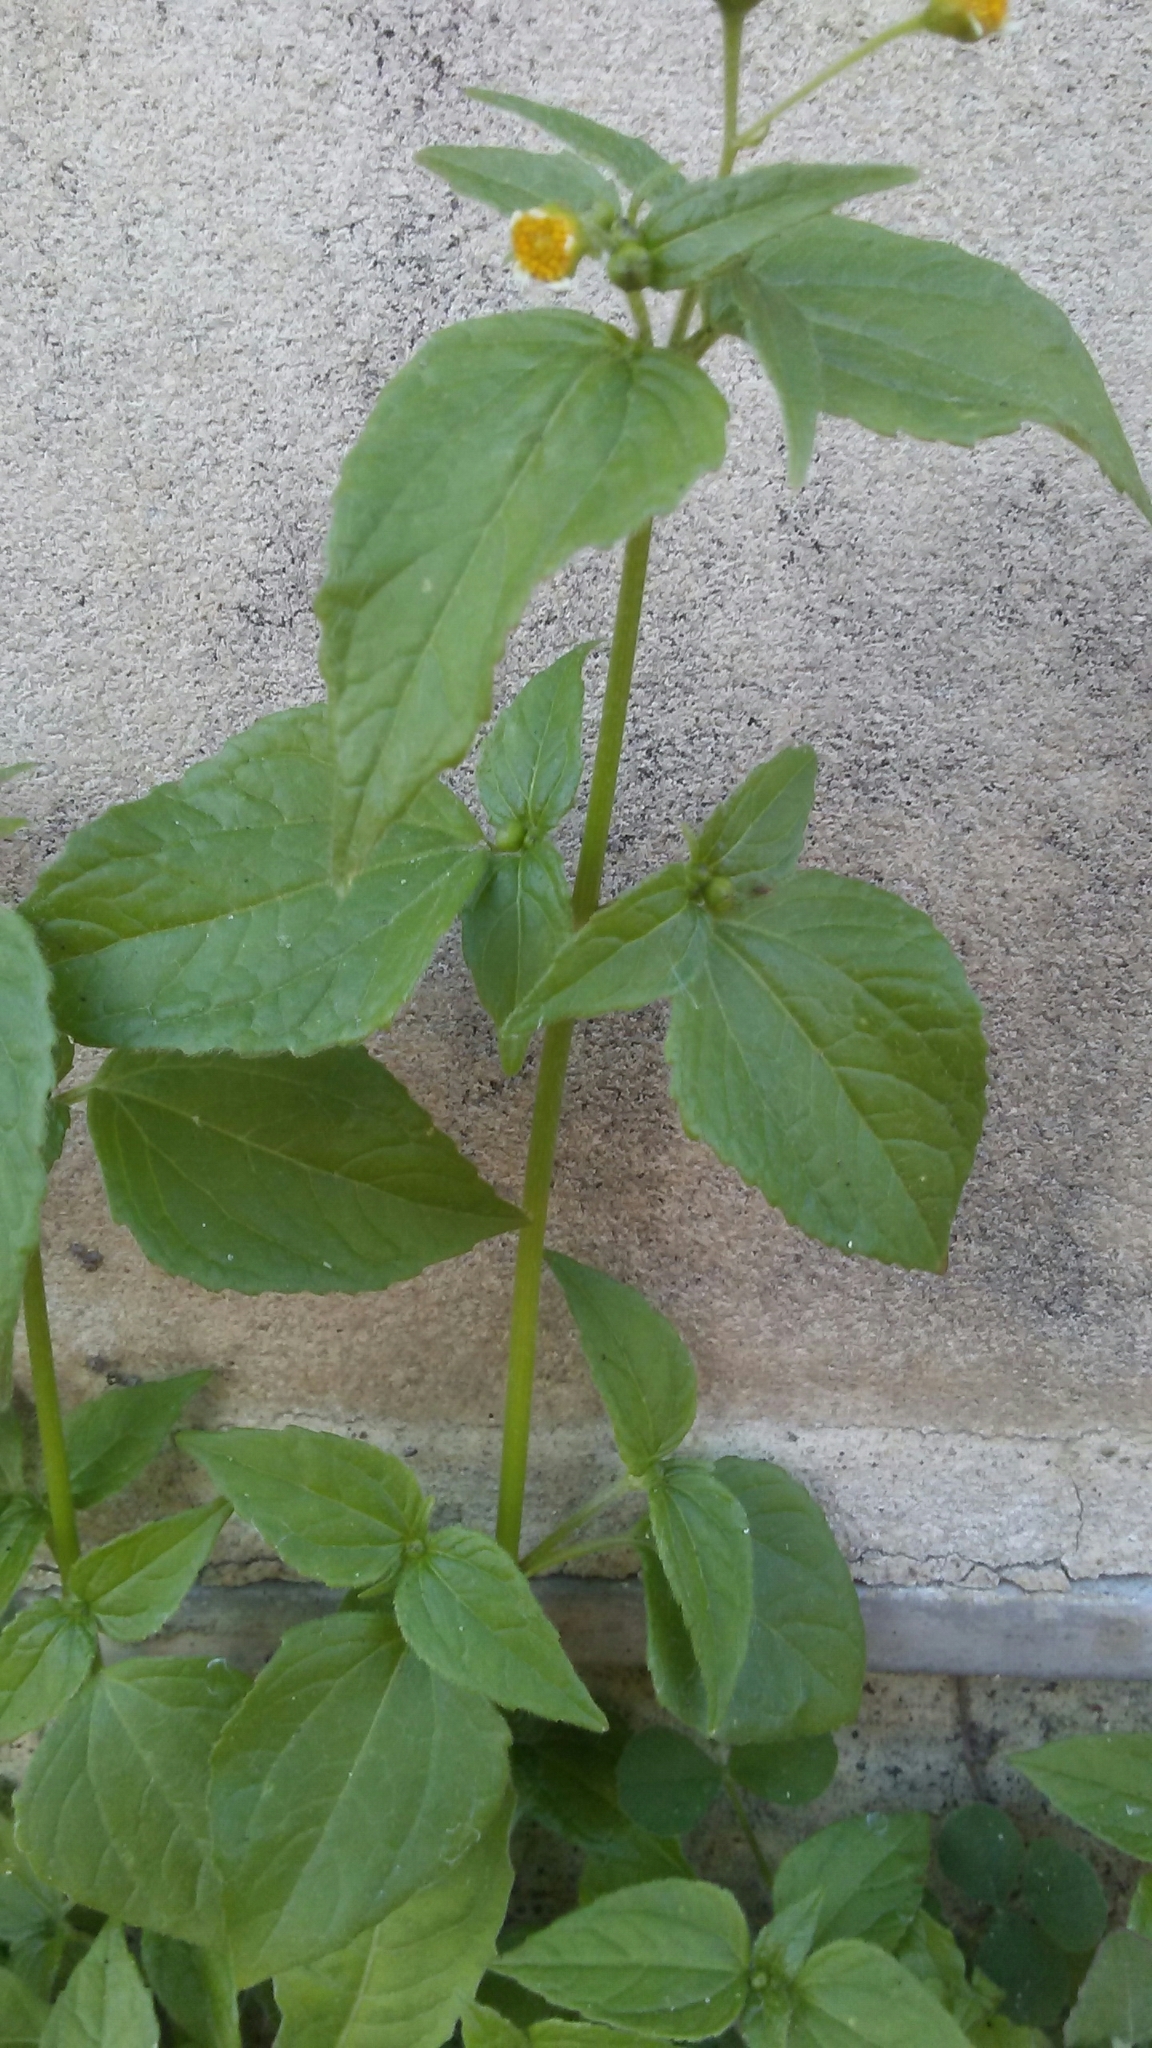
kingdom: Plantae
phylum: Tracheophyta
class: Magnoliopsida
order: Asterales
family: Asteraceae
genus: Galinsoga
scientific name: Galinsoga parviflora
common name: Gallant soldier
